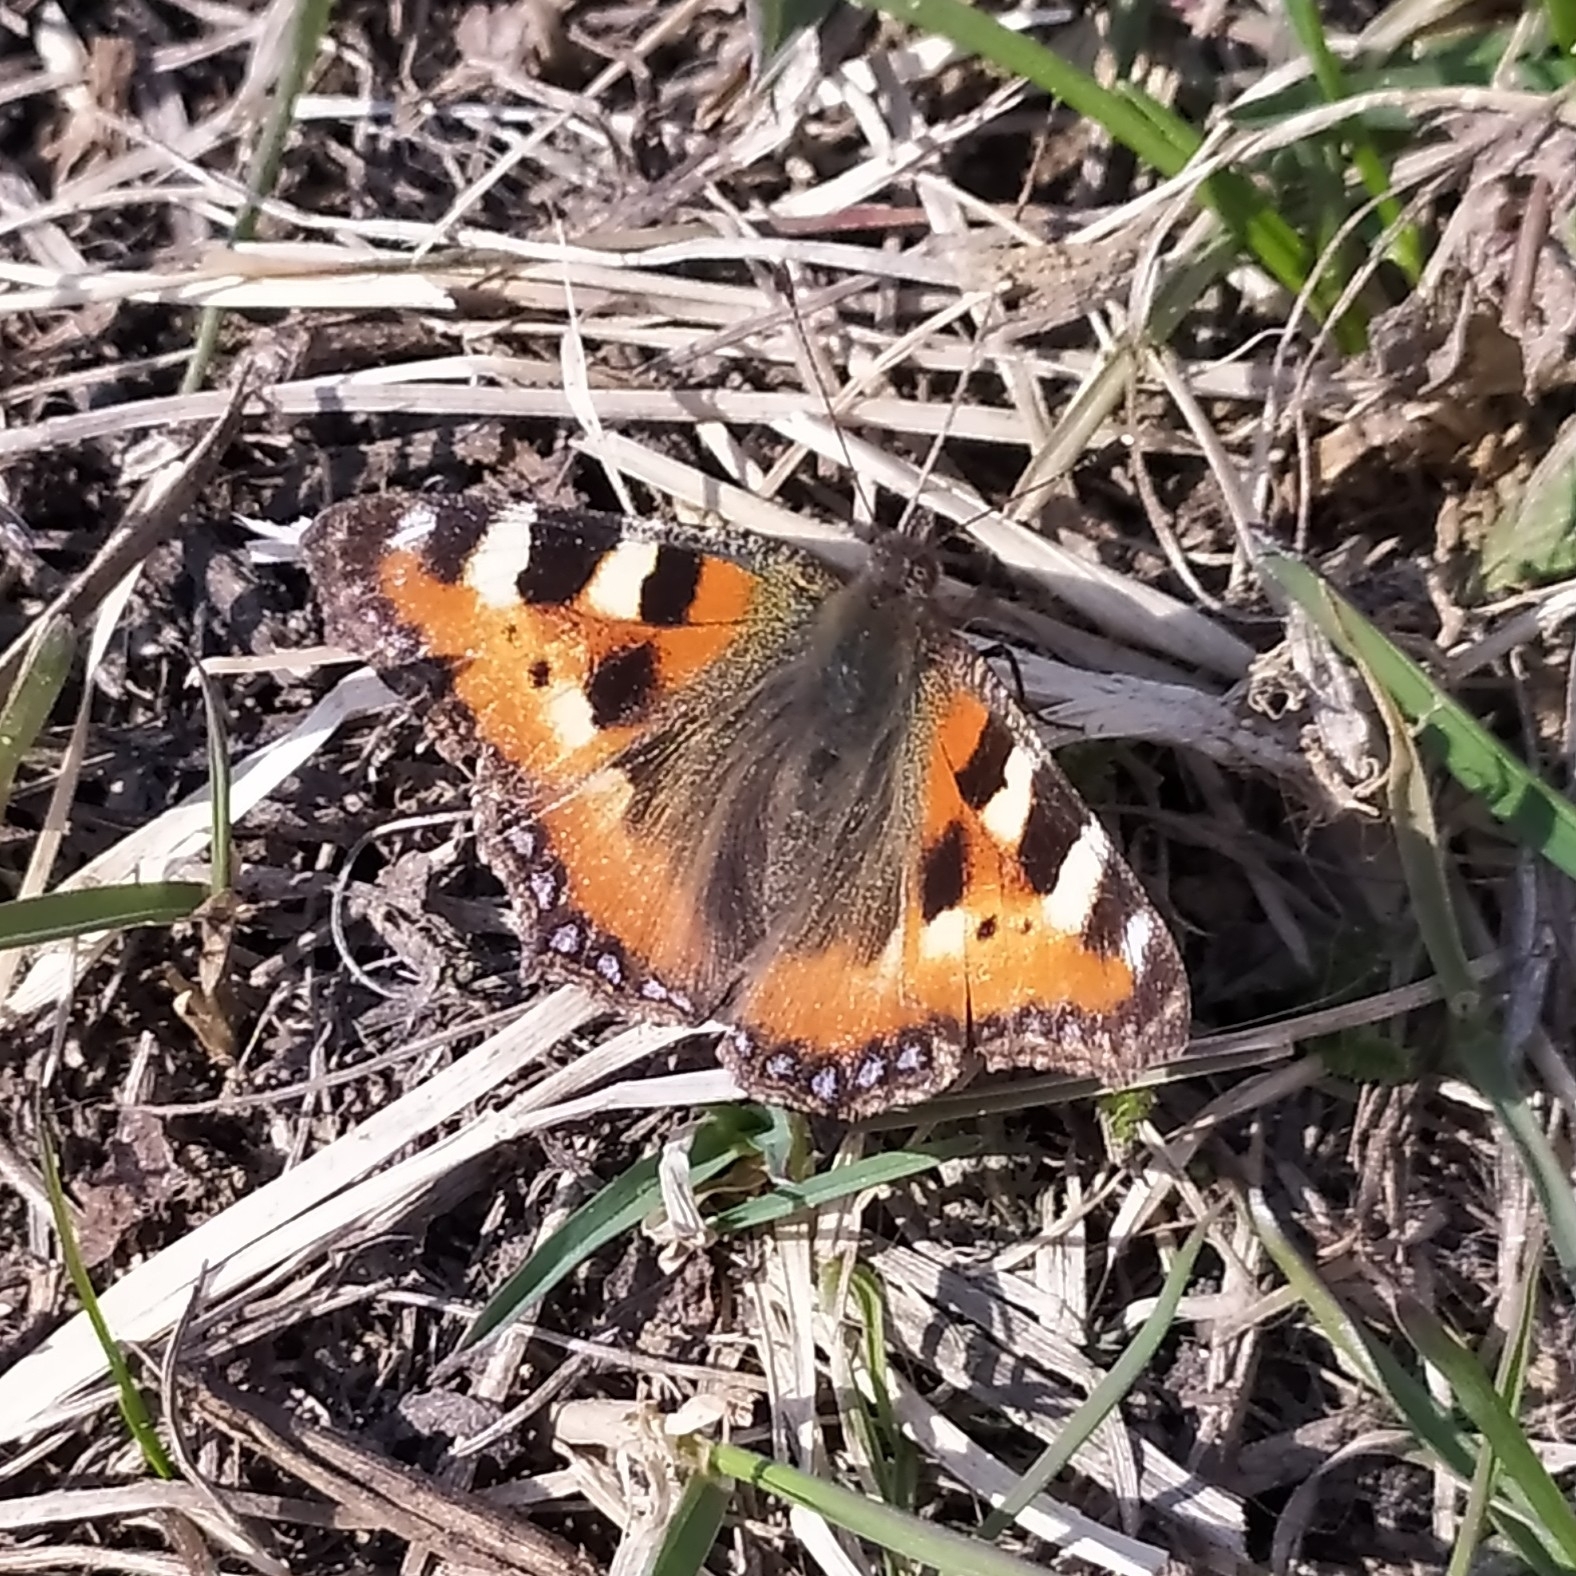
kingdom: Animalia
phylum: Arthropoda
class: Insecta
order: Lepidoptera
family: Nymphalidae
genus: Aglais
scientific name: Aglais urticae
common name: Small tortoiseshell
